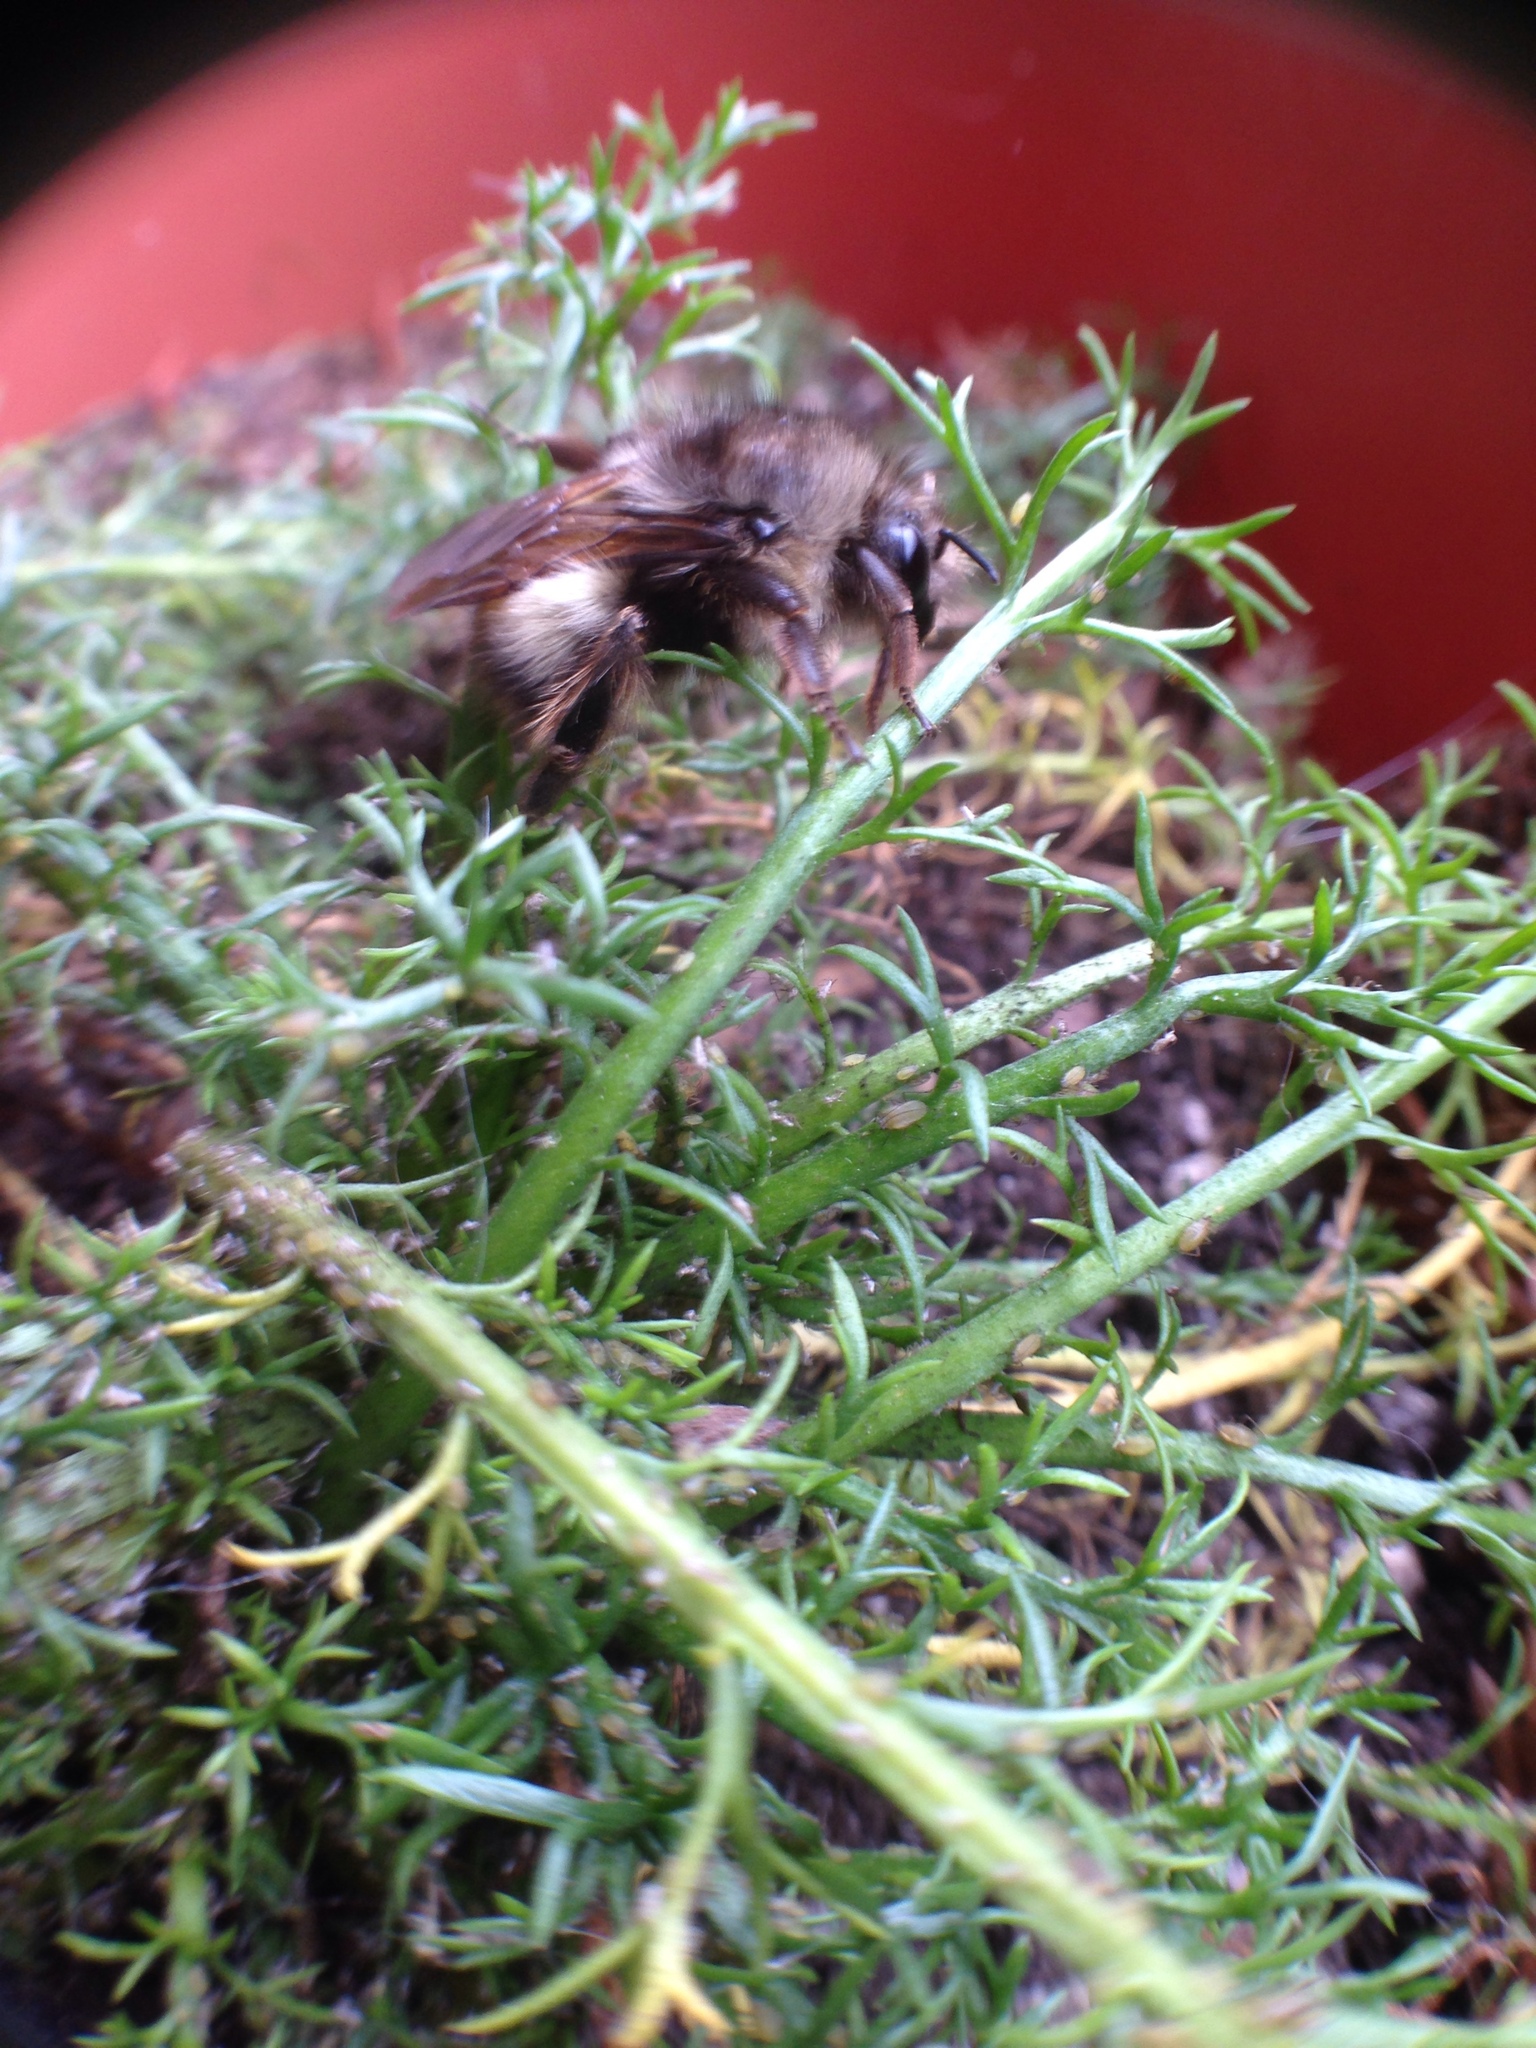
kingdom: Animalia
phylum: Arthropoda
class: Insecta
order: Hymenoptera
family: Apidae
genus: Bombus
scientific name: Bombus sitkensis
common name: Sitka bumble bee
